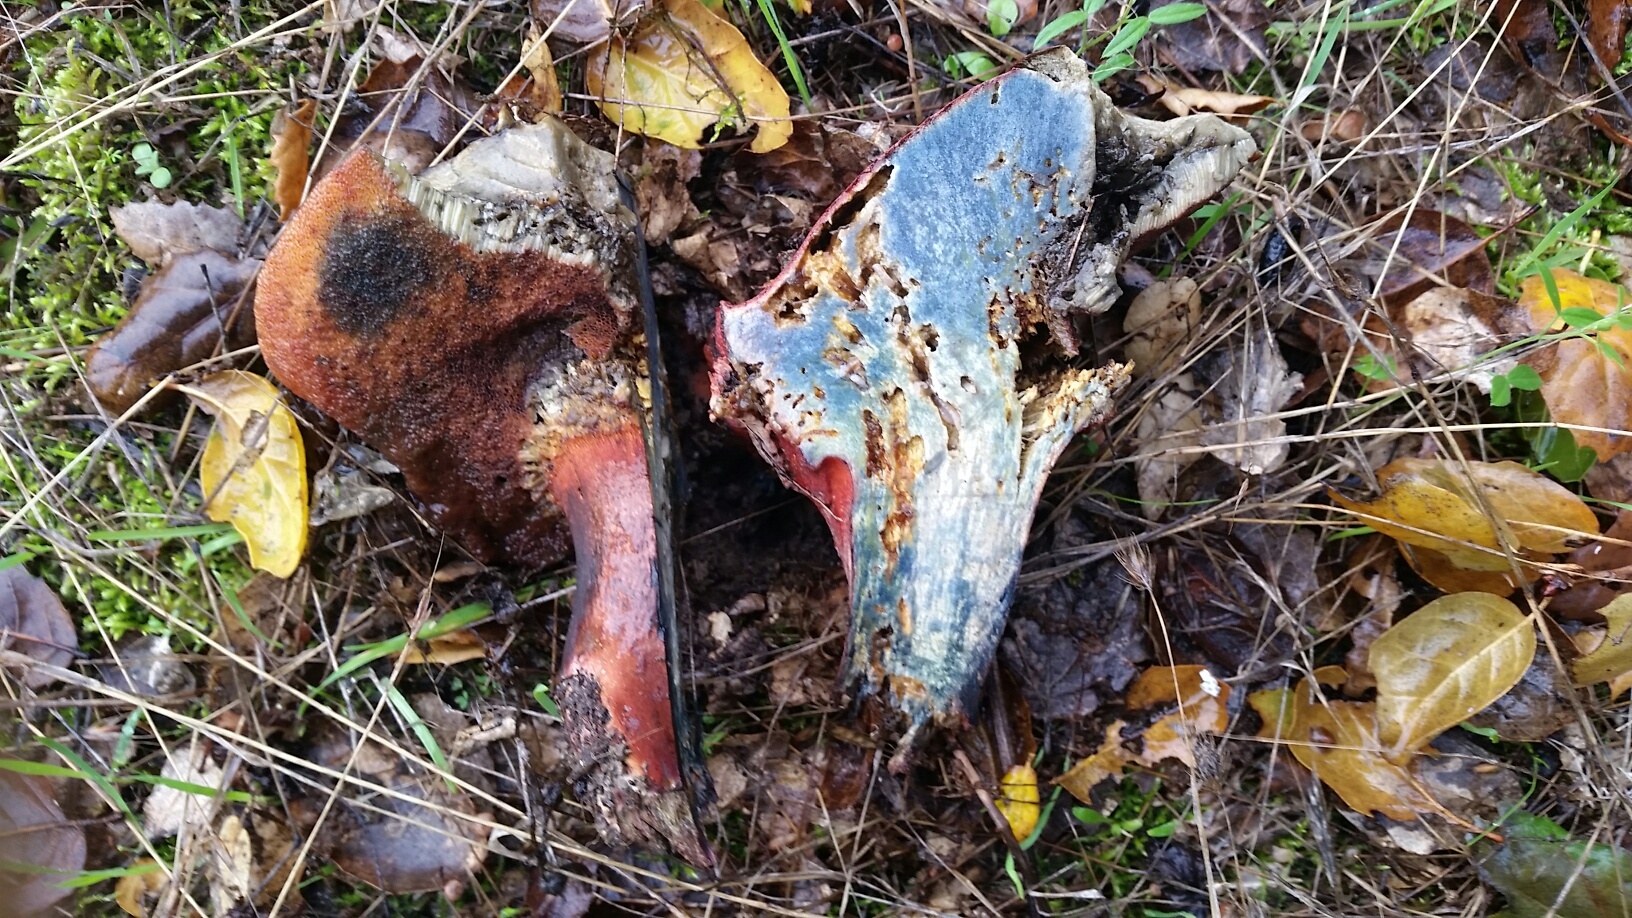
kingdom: Fungi
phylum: Basidiomycota
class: Agaricomycetes
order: Boletales
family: Boletaceae
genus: Suillellus
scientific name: Suillellus amygdalinus
